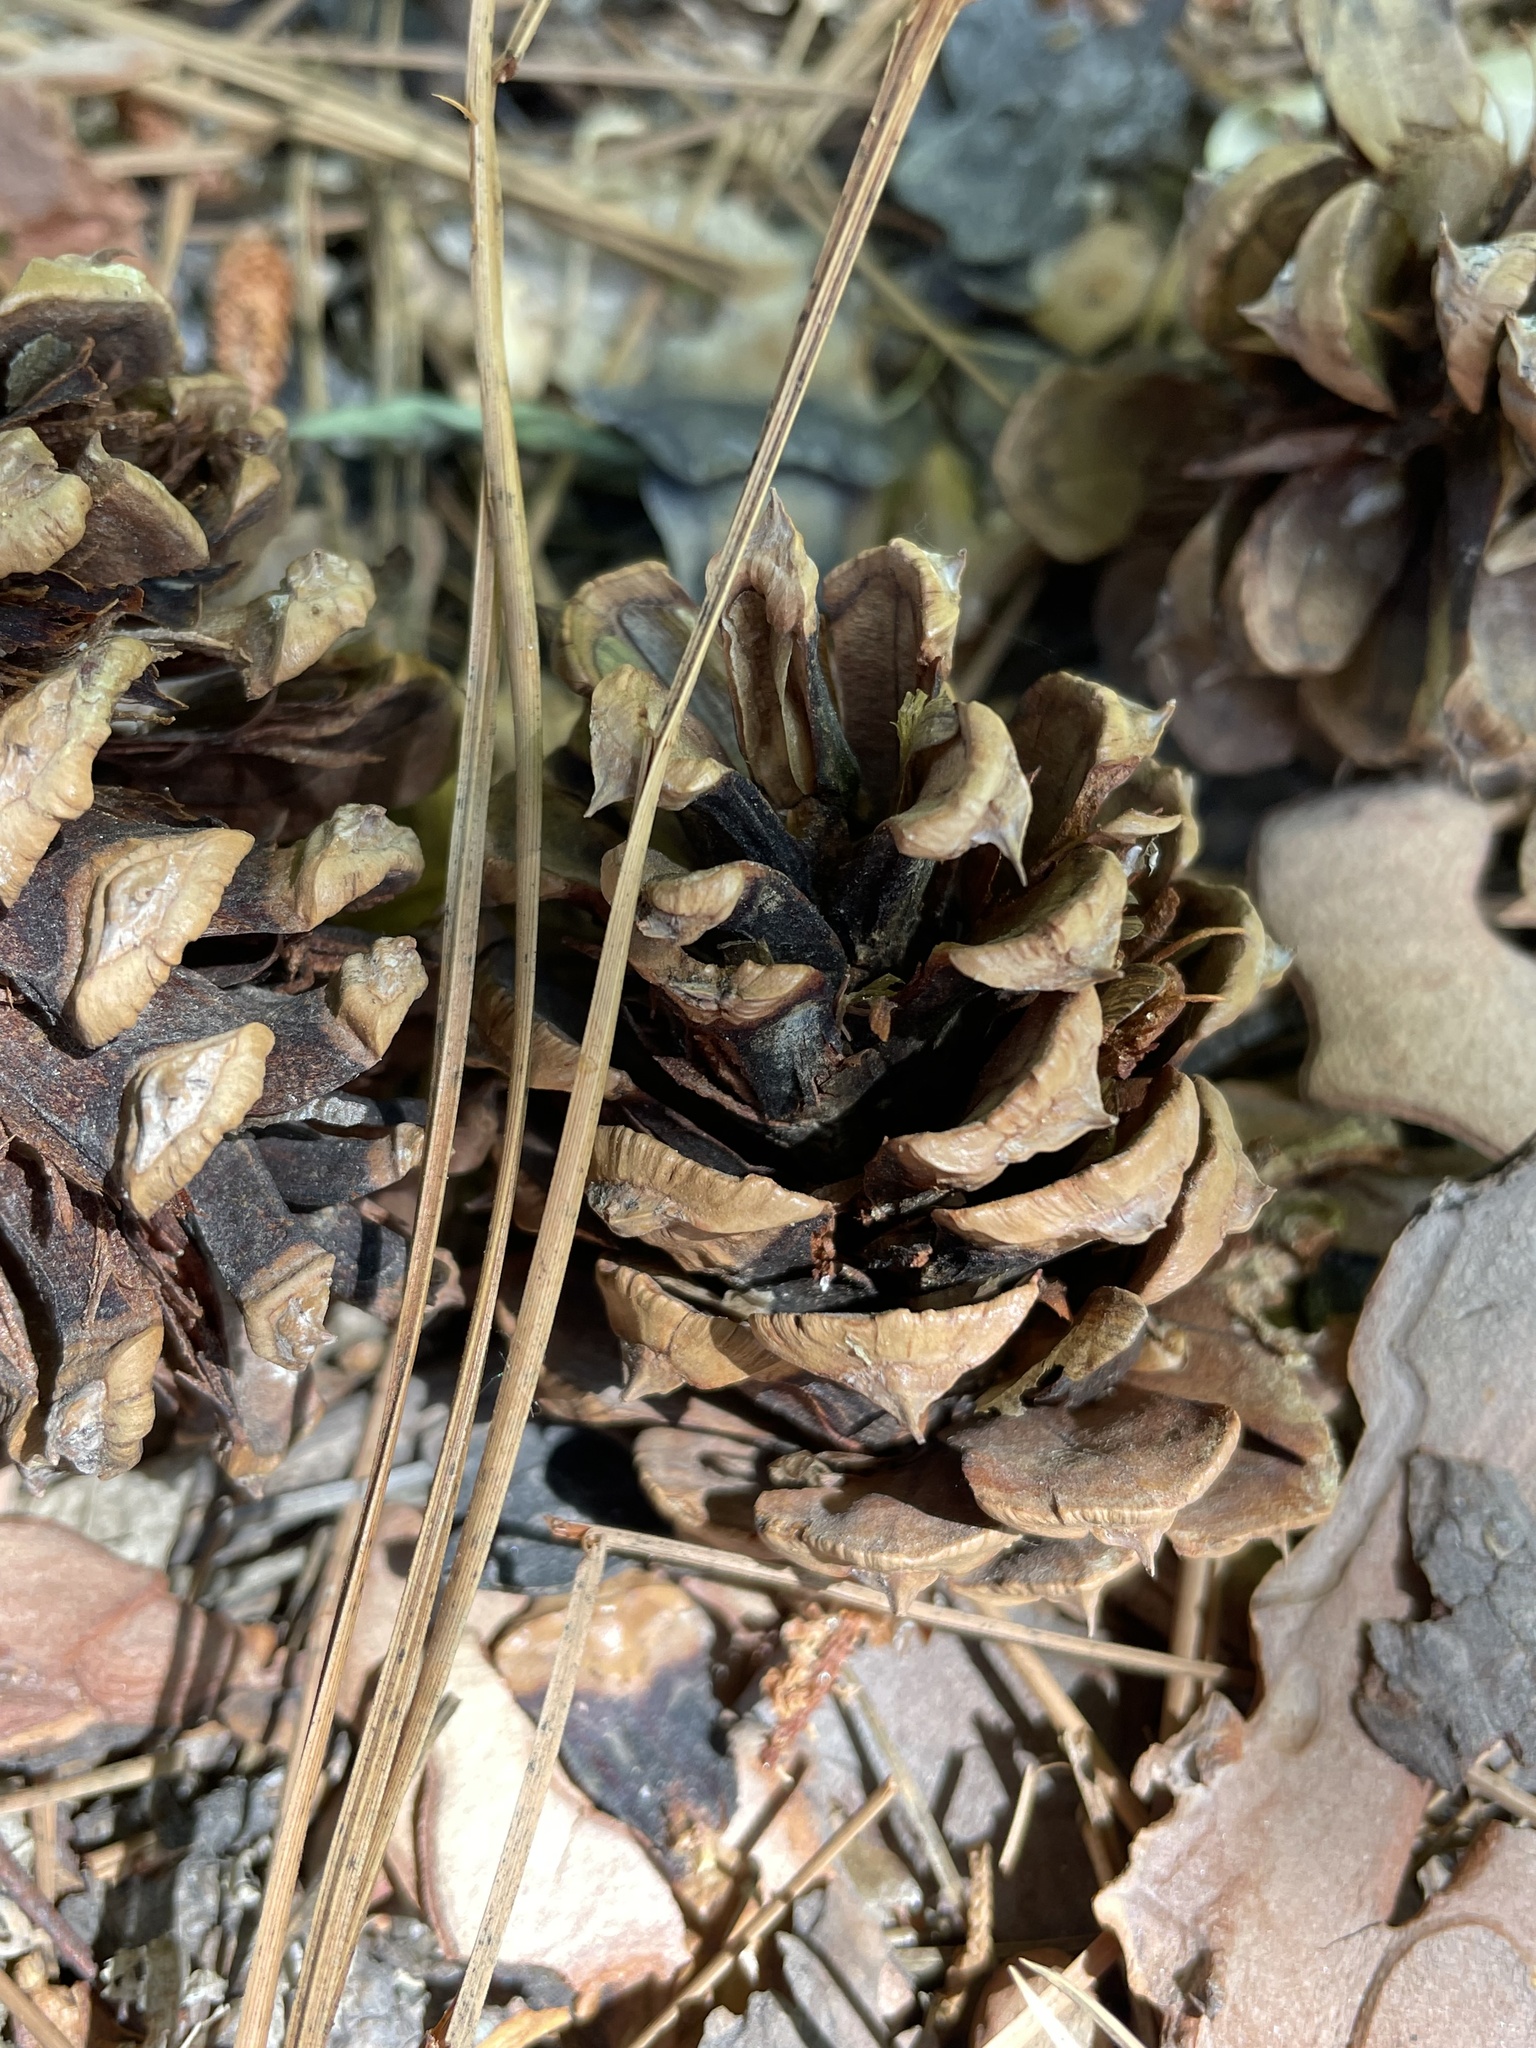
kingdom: Plantae
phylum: Tracheophyta
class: Pinopsida
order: Pinales
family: Pinaceae
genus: Pinus
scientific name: Pinus ponderosa
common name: Western yellow-pine
